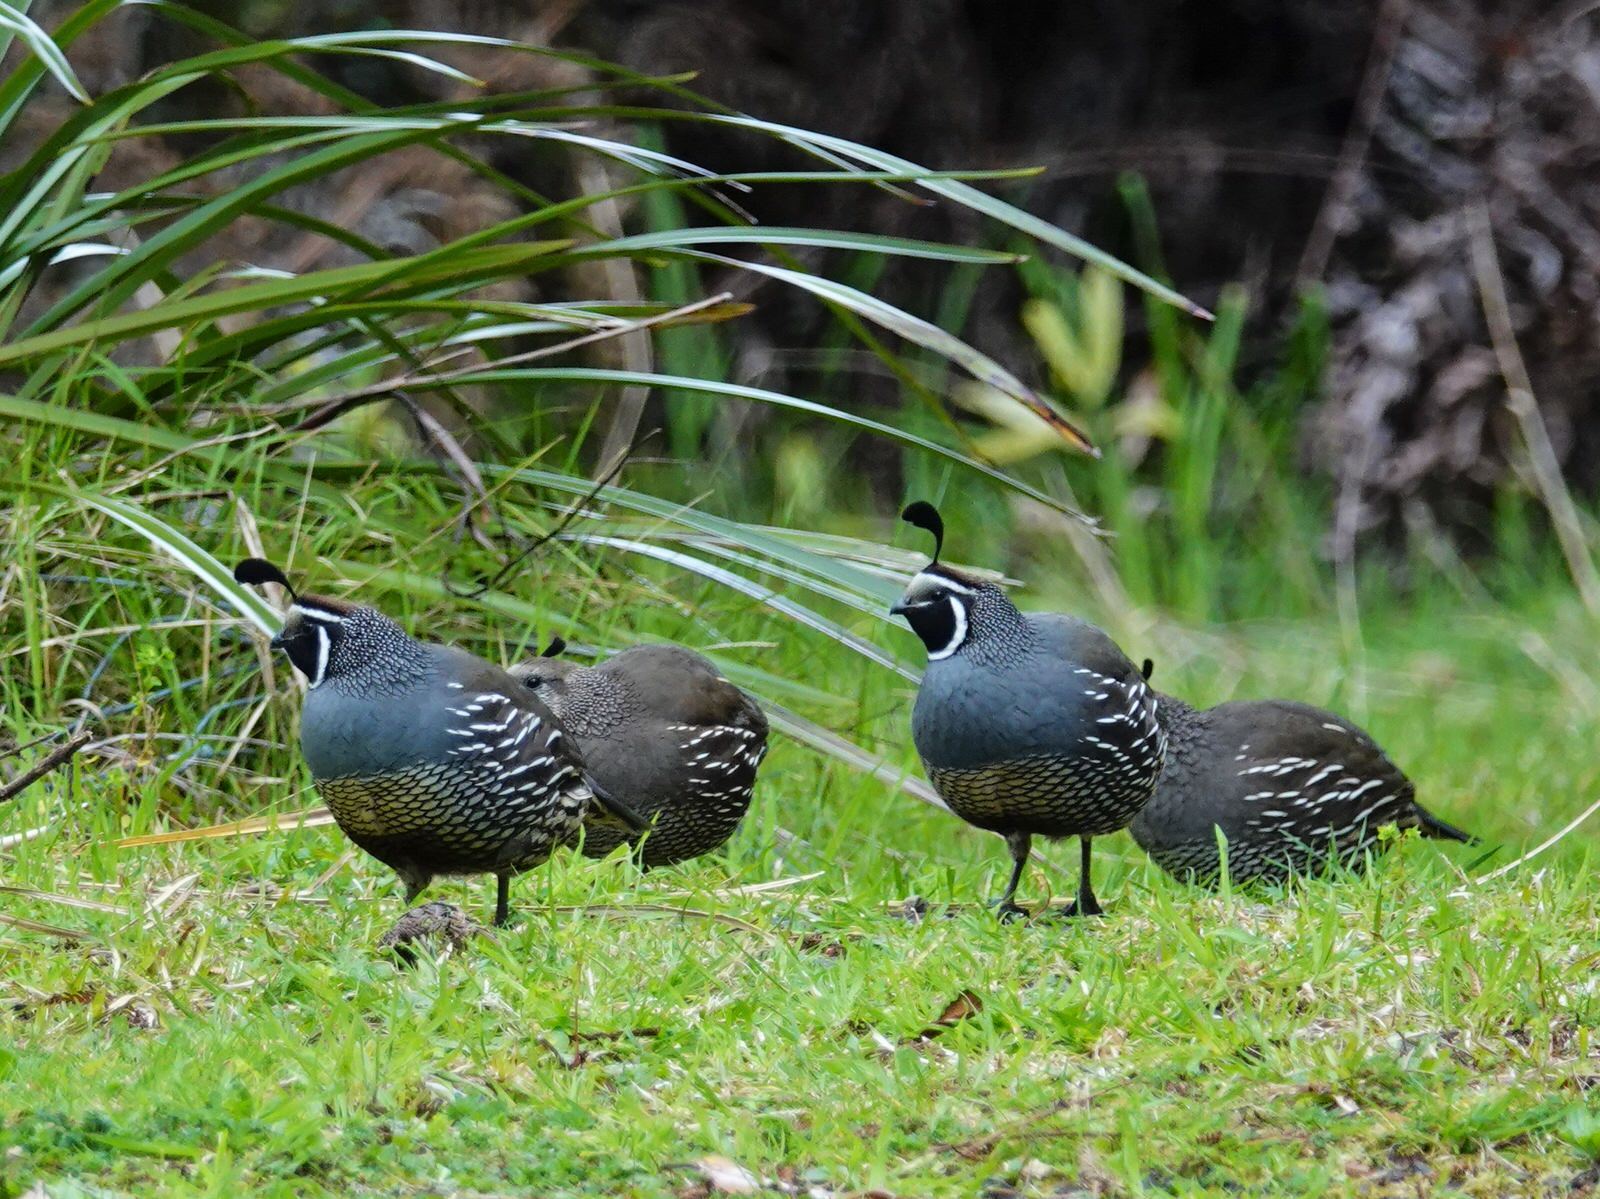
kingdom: Animalia
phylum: Chordata
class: Aves
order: Galliformes
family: Odontophoridae
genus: Callipepla
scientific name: Callipepla californica
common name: California quail
